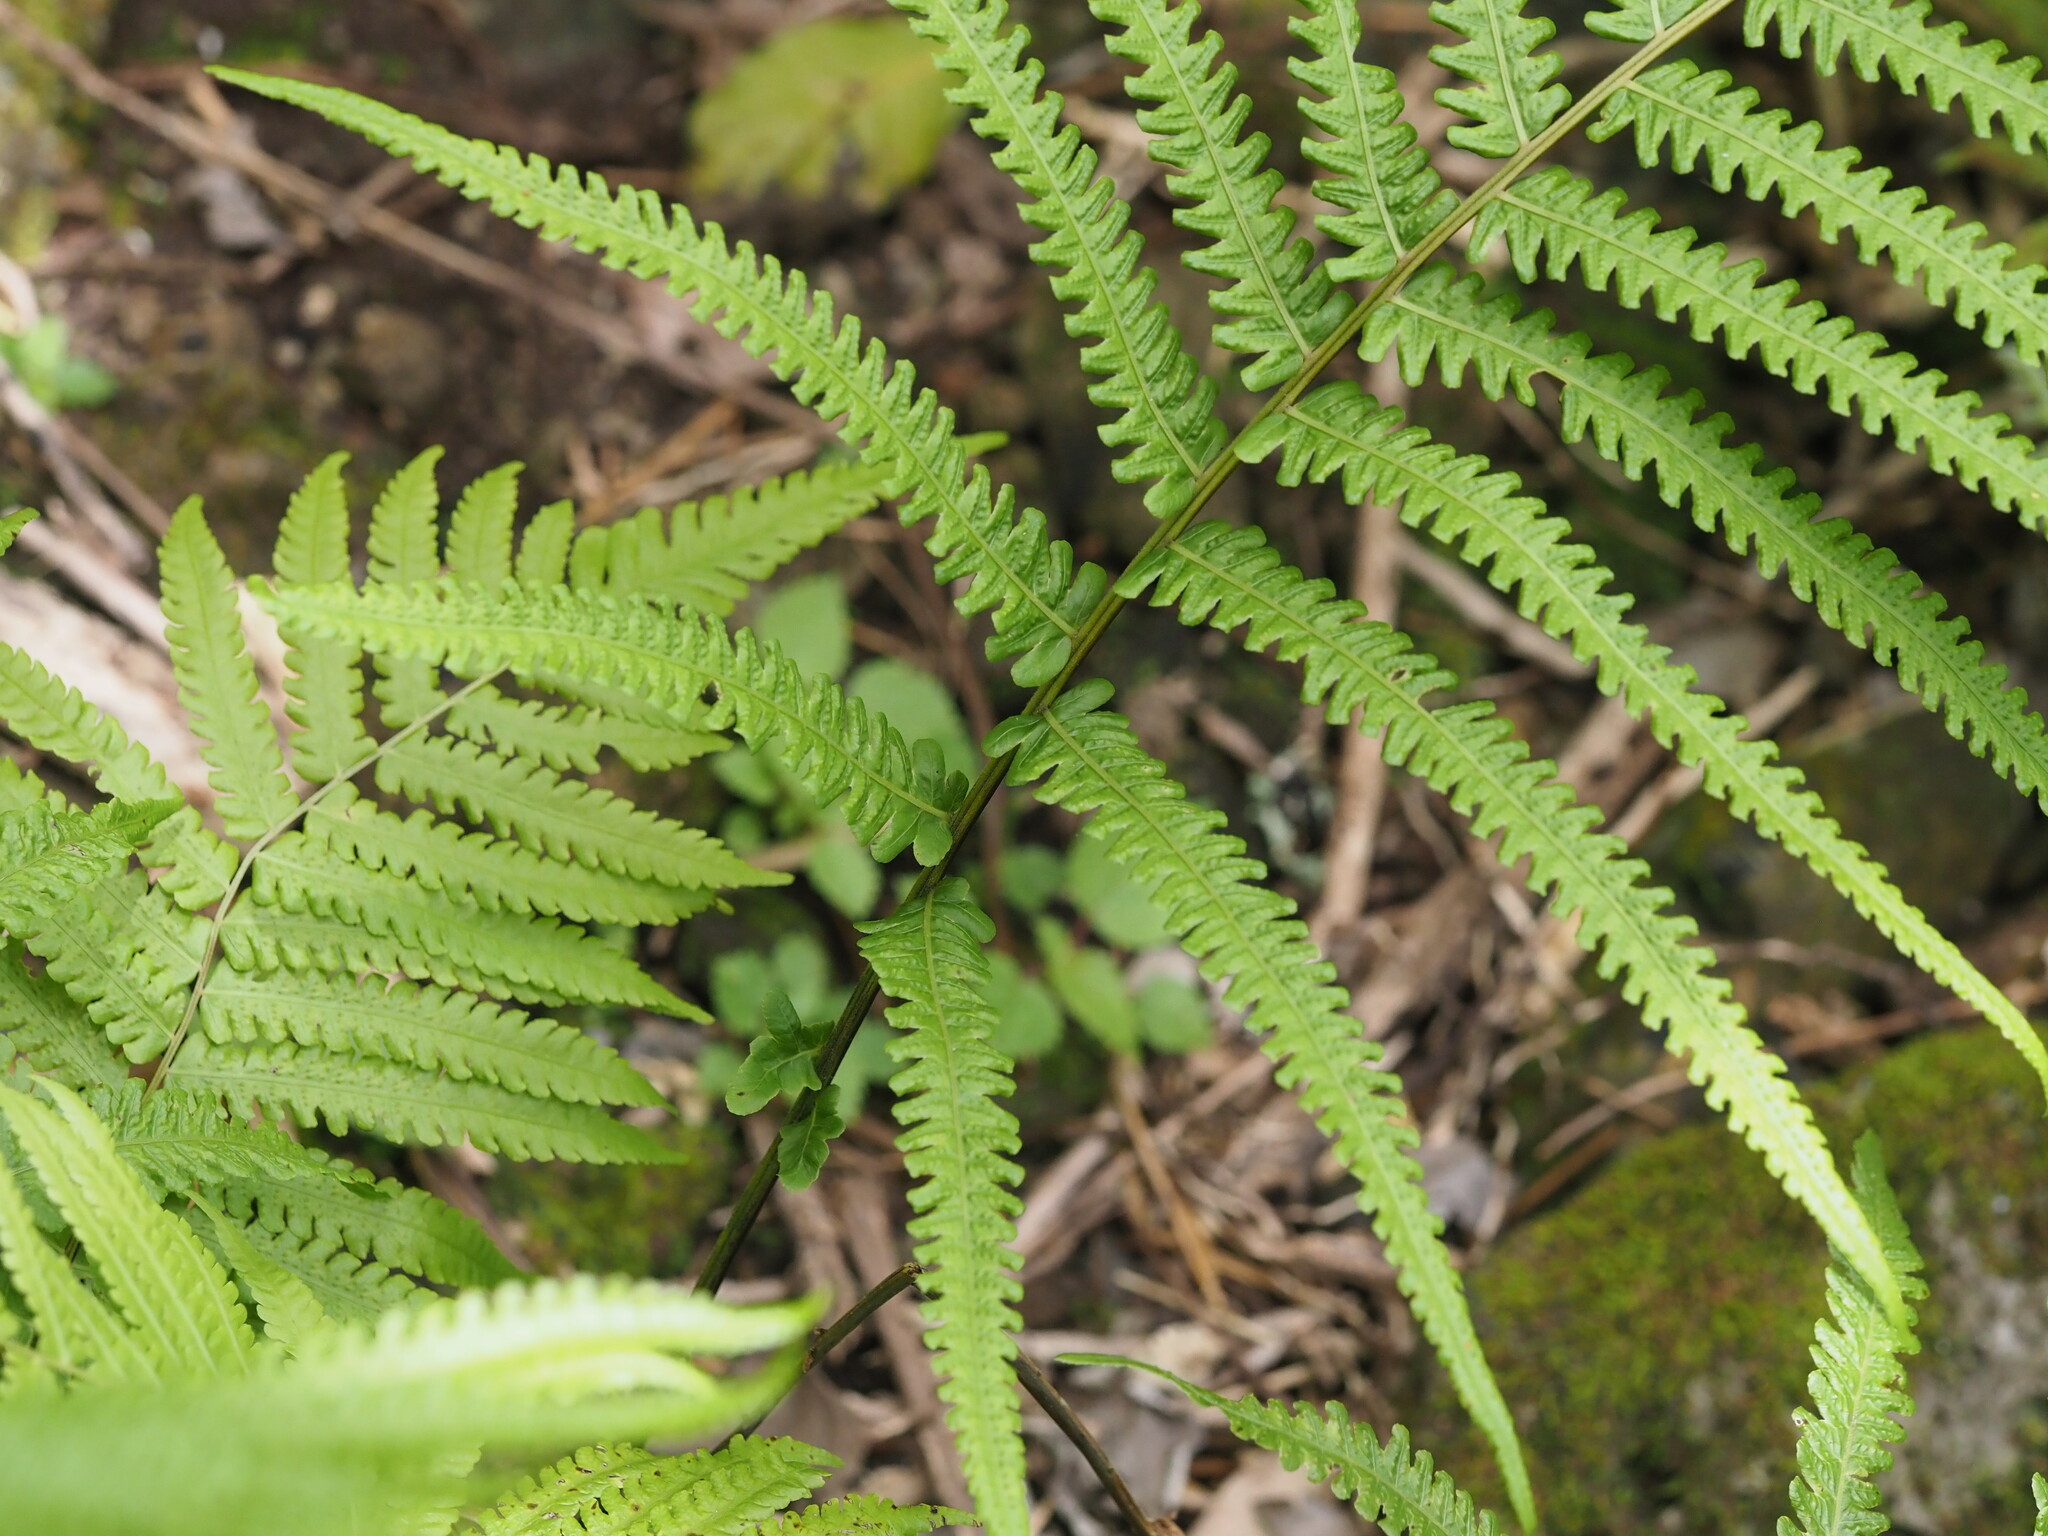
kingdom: Plantae
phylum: Tracheophyta
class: Polypodiopsida
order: Polypodiales
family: Thelypteridaceae
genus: Reholttumia
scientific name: Reholttumia hudsoniana
